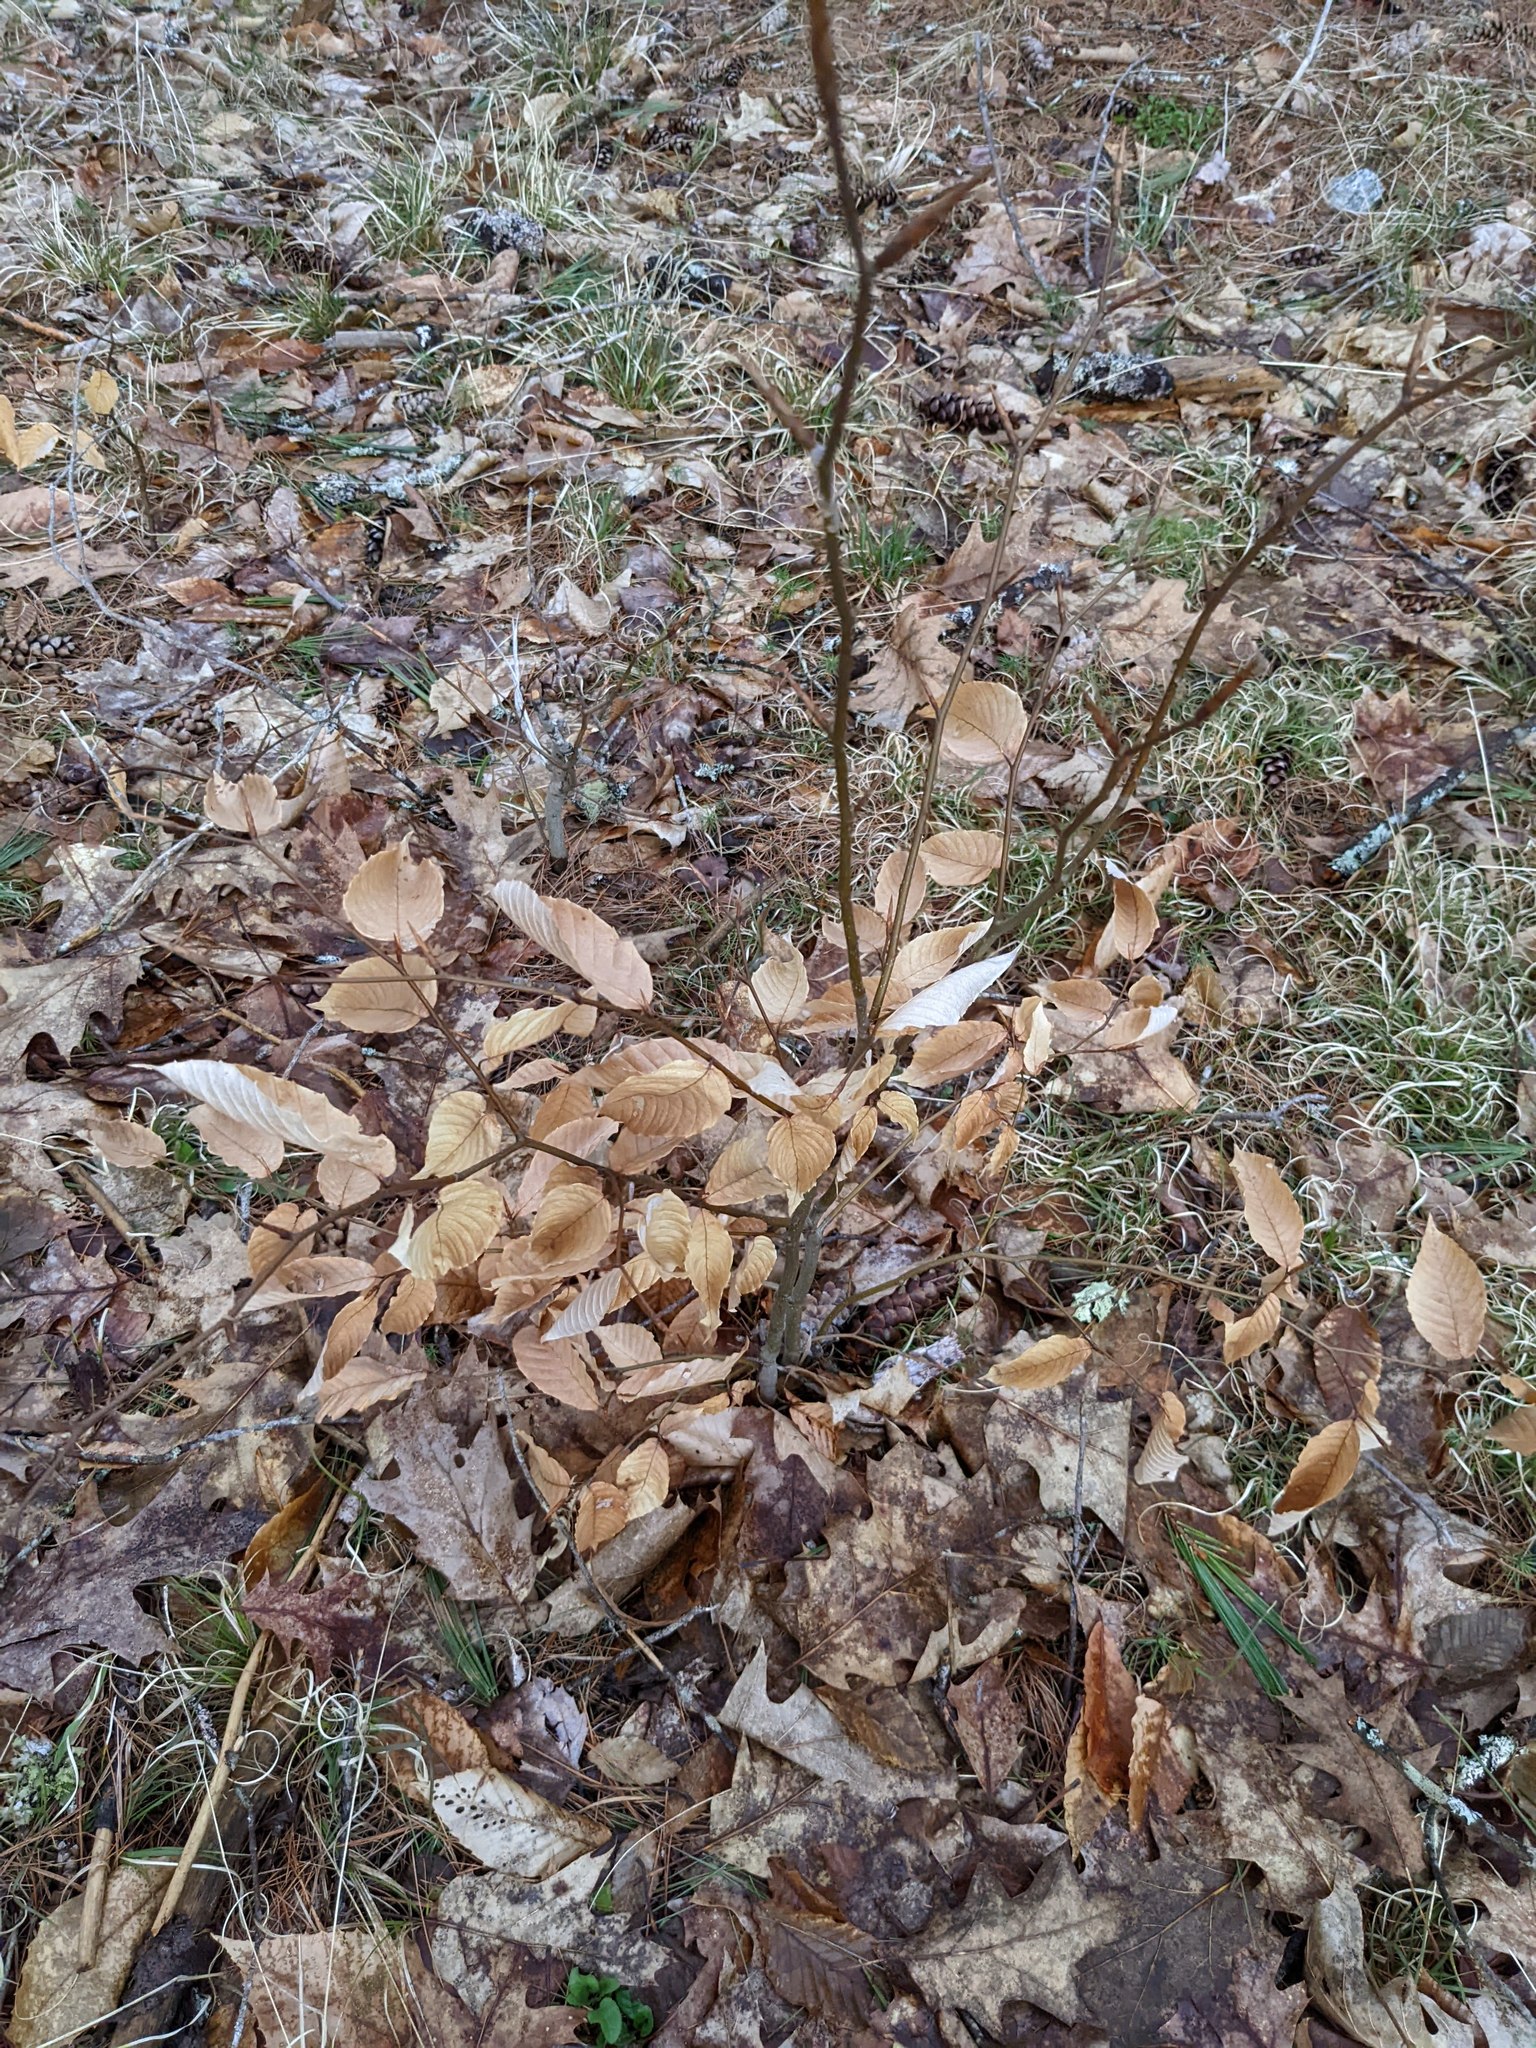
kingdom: Plantae
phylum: Tracheophyta
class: Magnoliopsida
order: Fagales
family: Fagaceae
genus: Fagus
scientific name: Fagus grandifolia
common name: American beech
